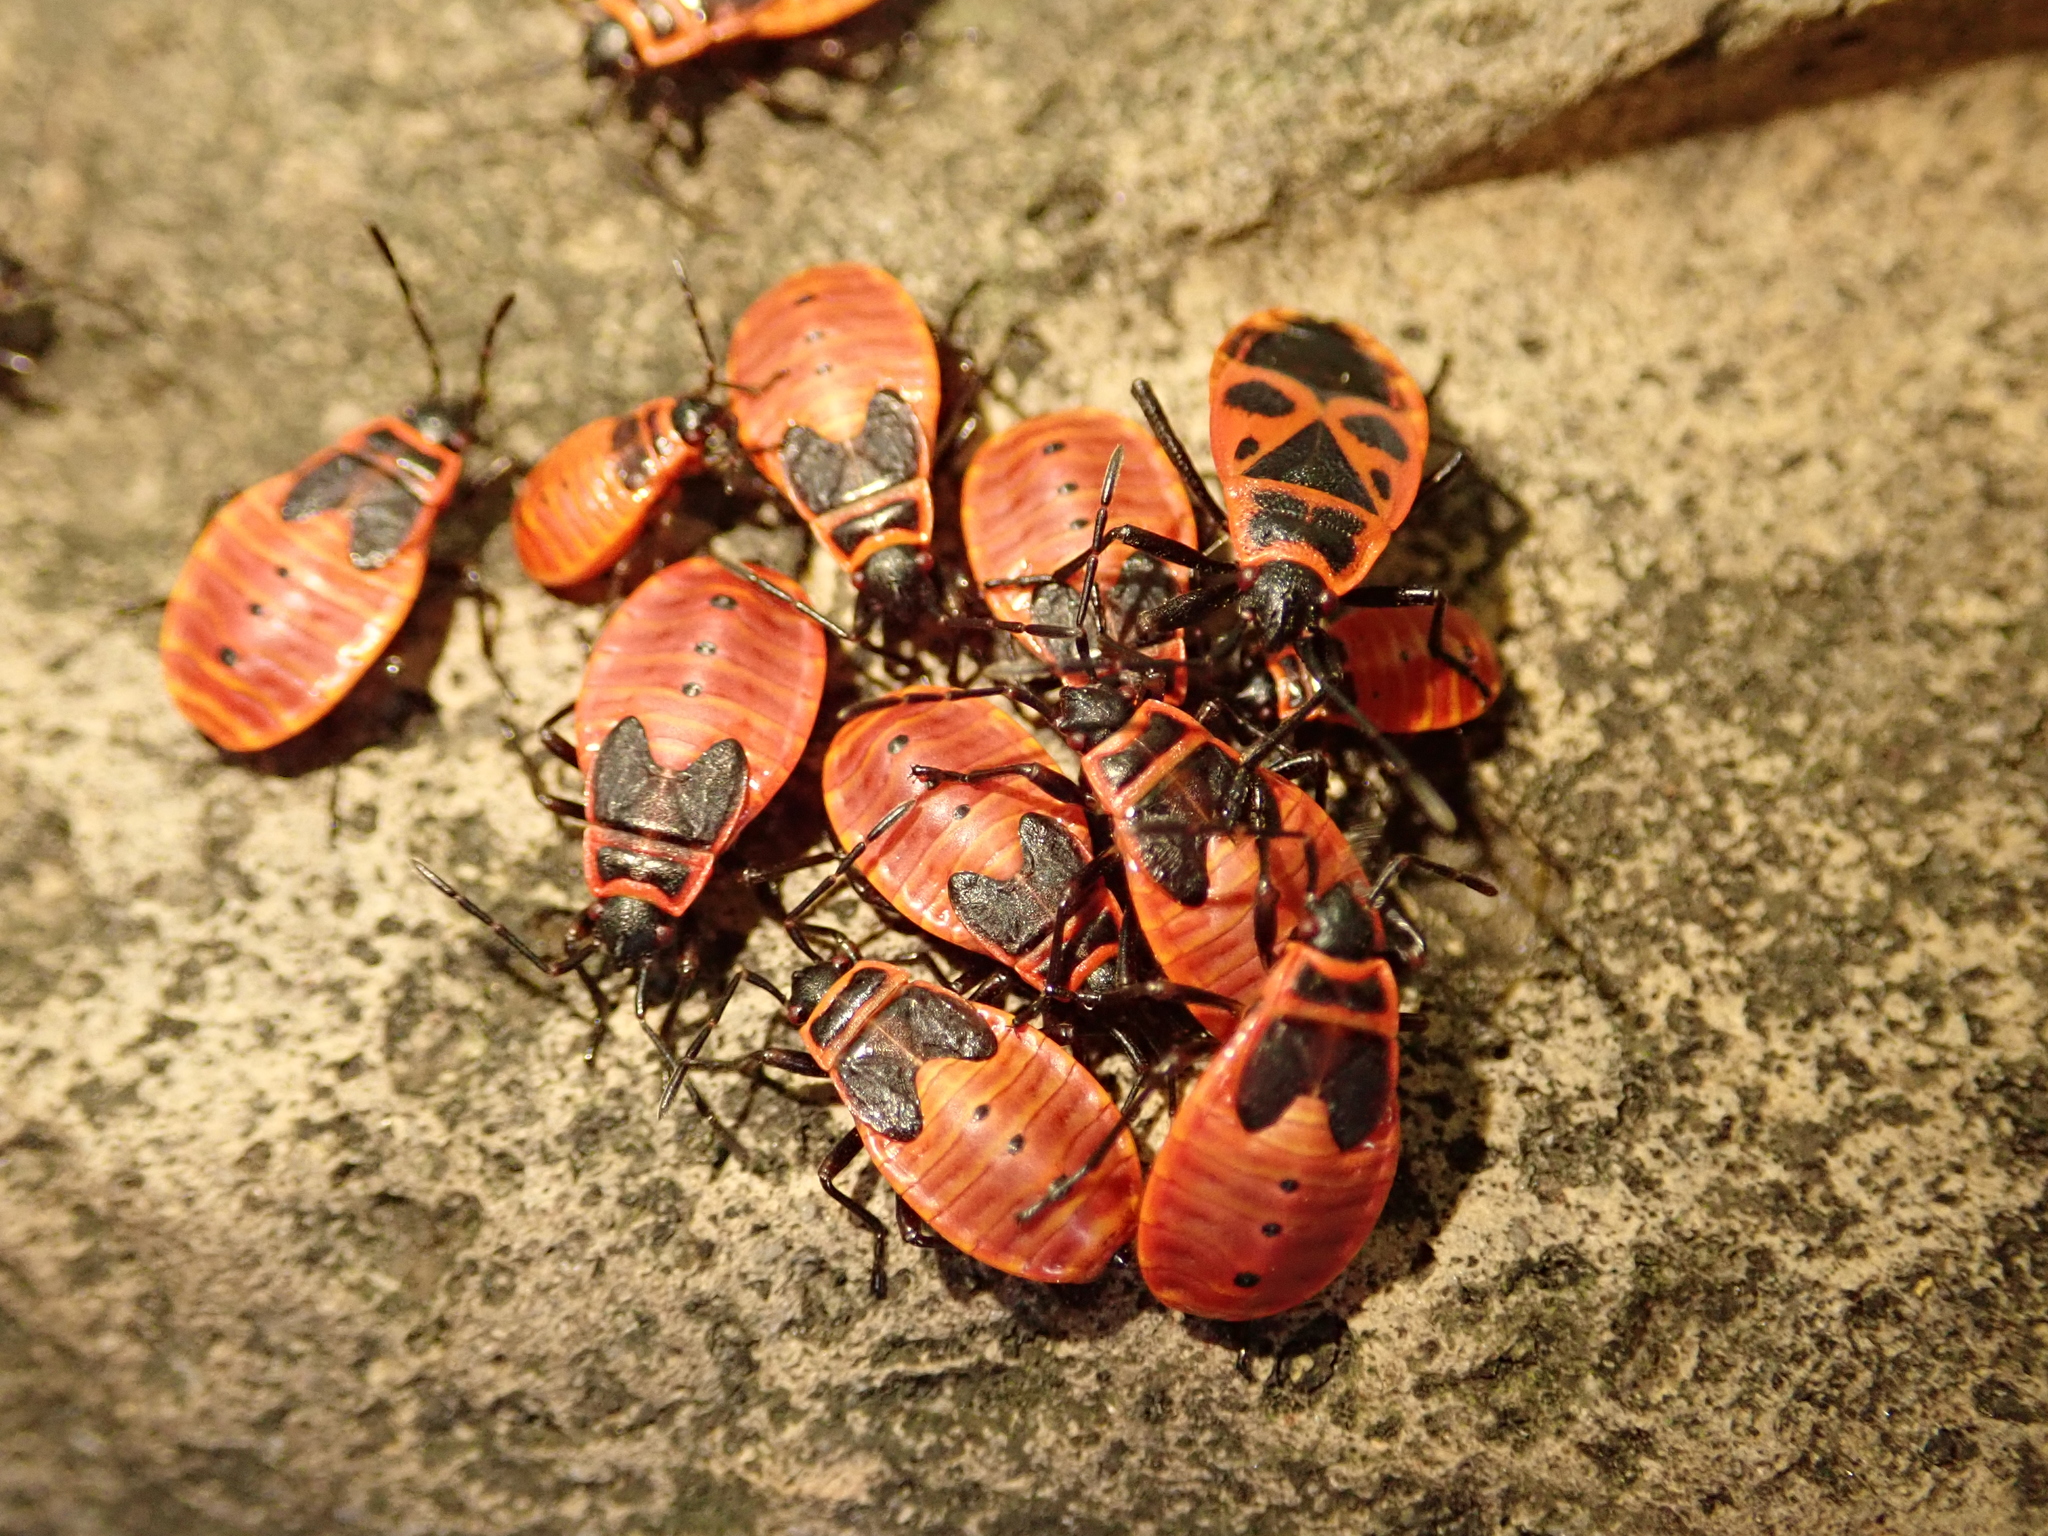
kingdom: Animalia
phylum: Arthropoda
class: Insecta
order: Hemiptera
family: Pyrrhocoridae
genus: Pyrrhocoris
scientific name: Pyrrhocoris apterus
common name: Firebug
